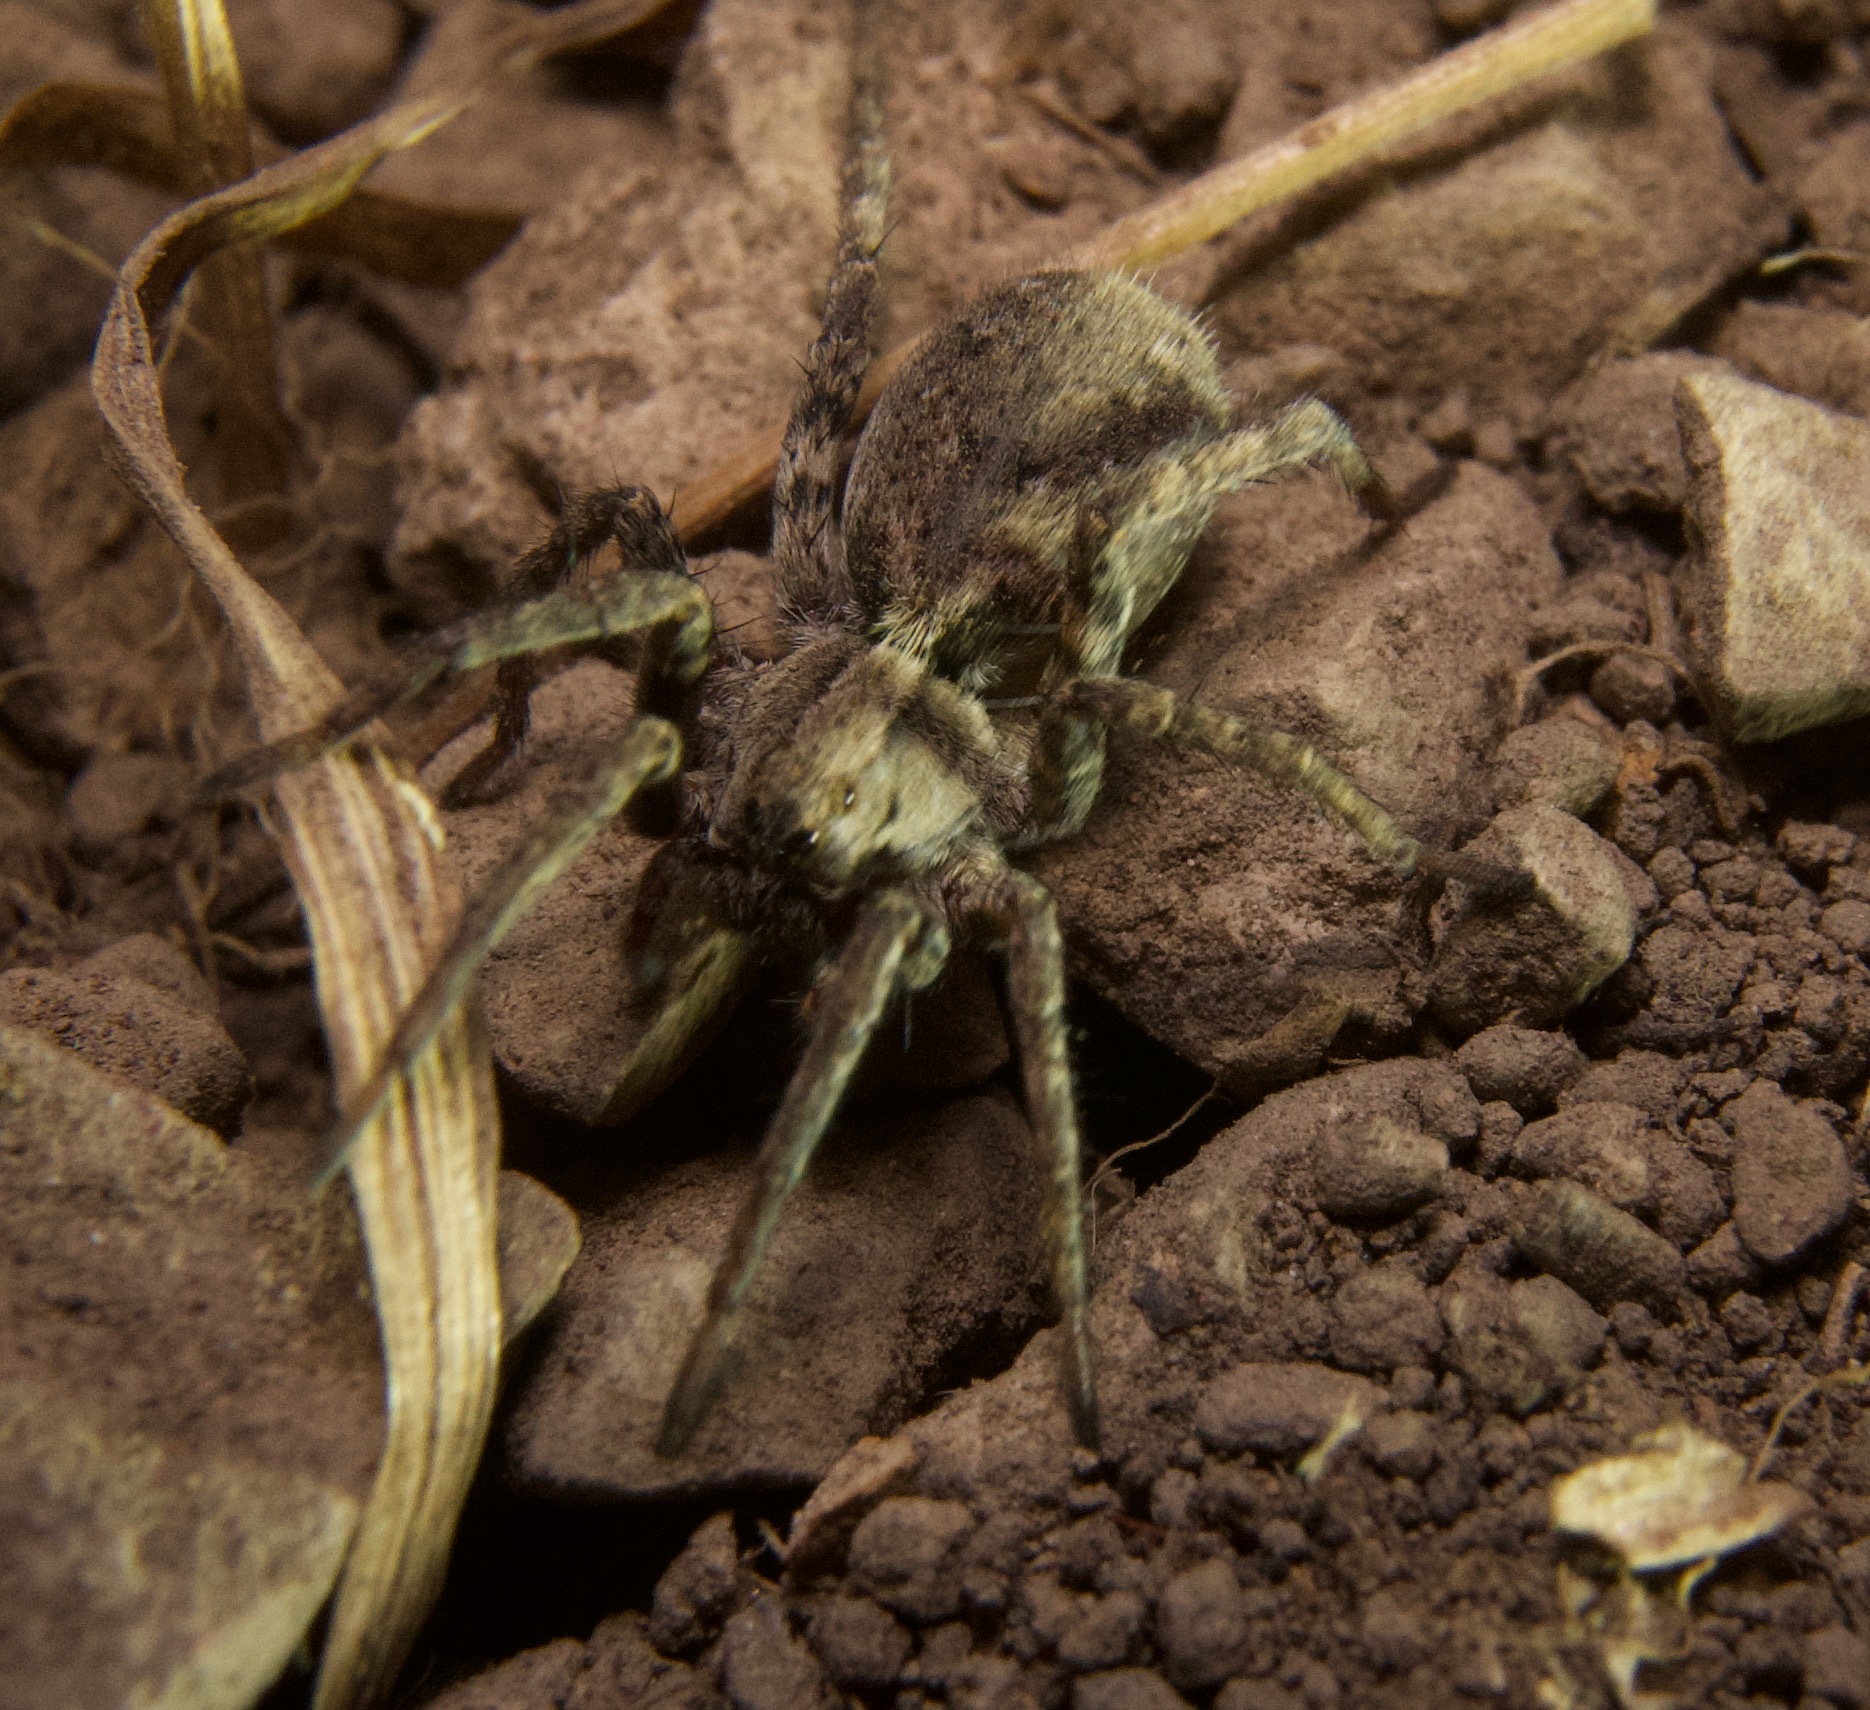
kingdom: Animalia
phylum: Arthropoda
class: Arachnida
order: Araneae
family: Lycosidae
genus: Alopecosa
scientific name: Alopecosa kochi
